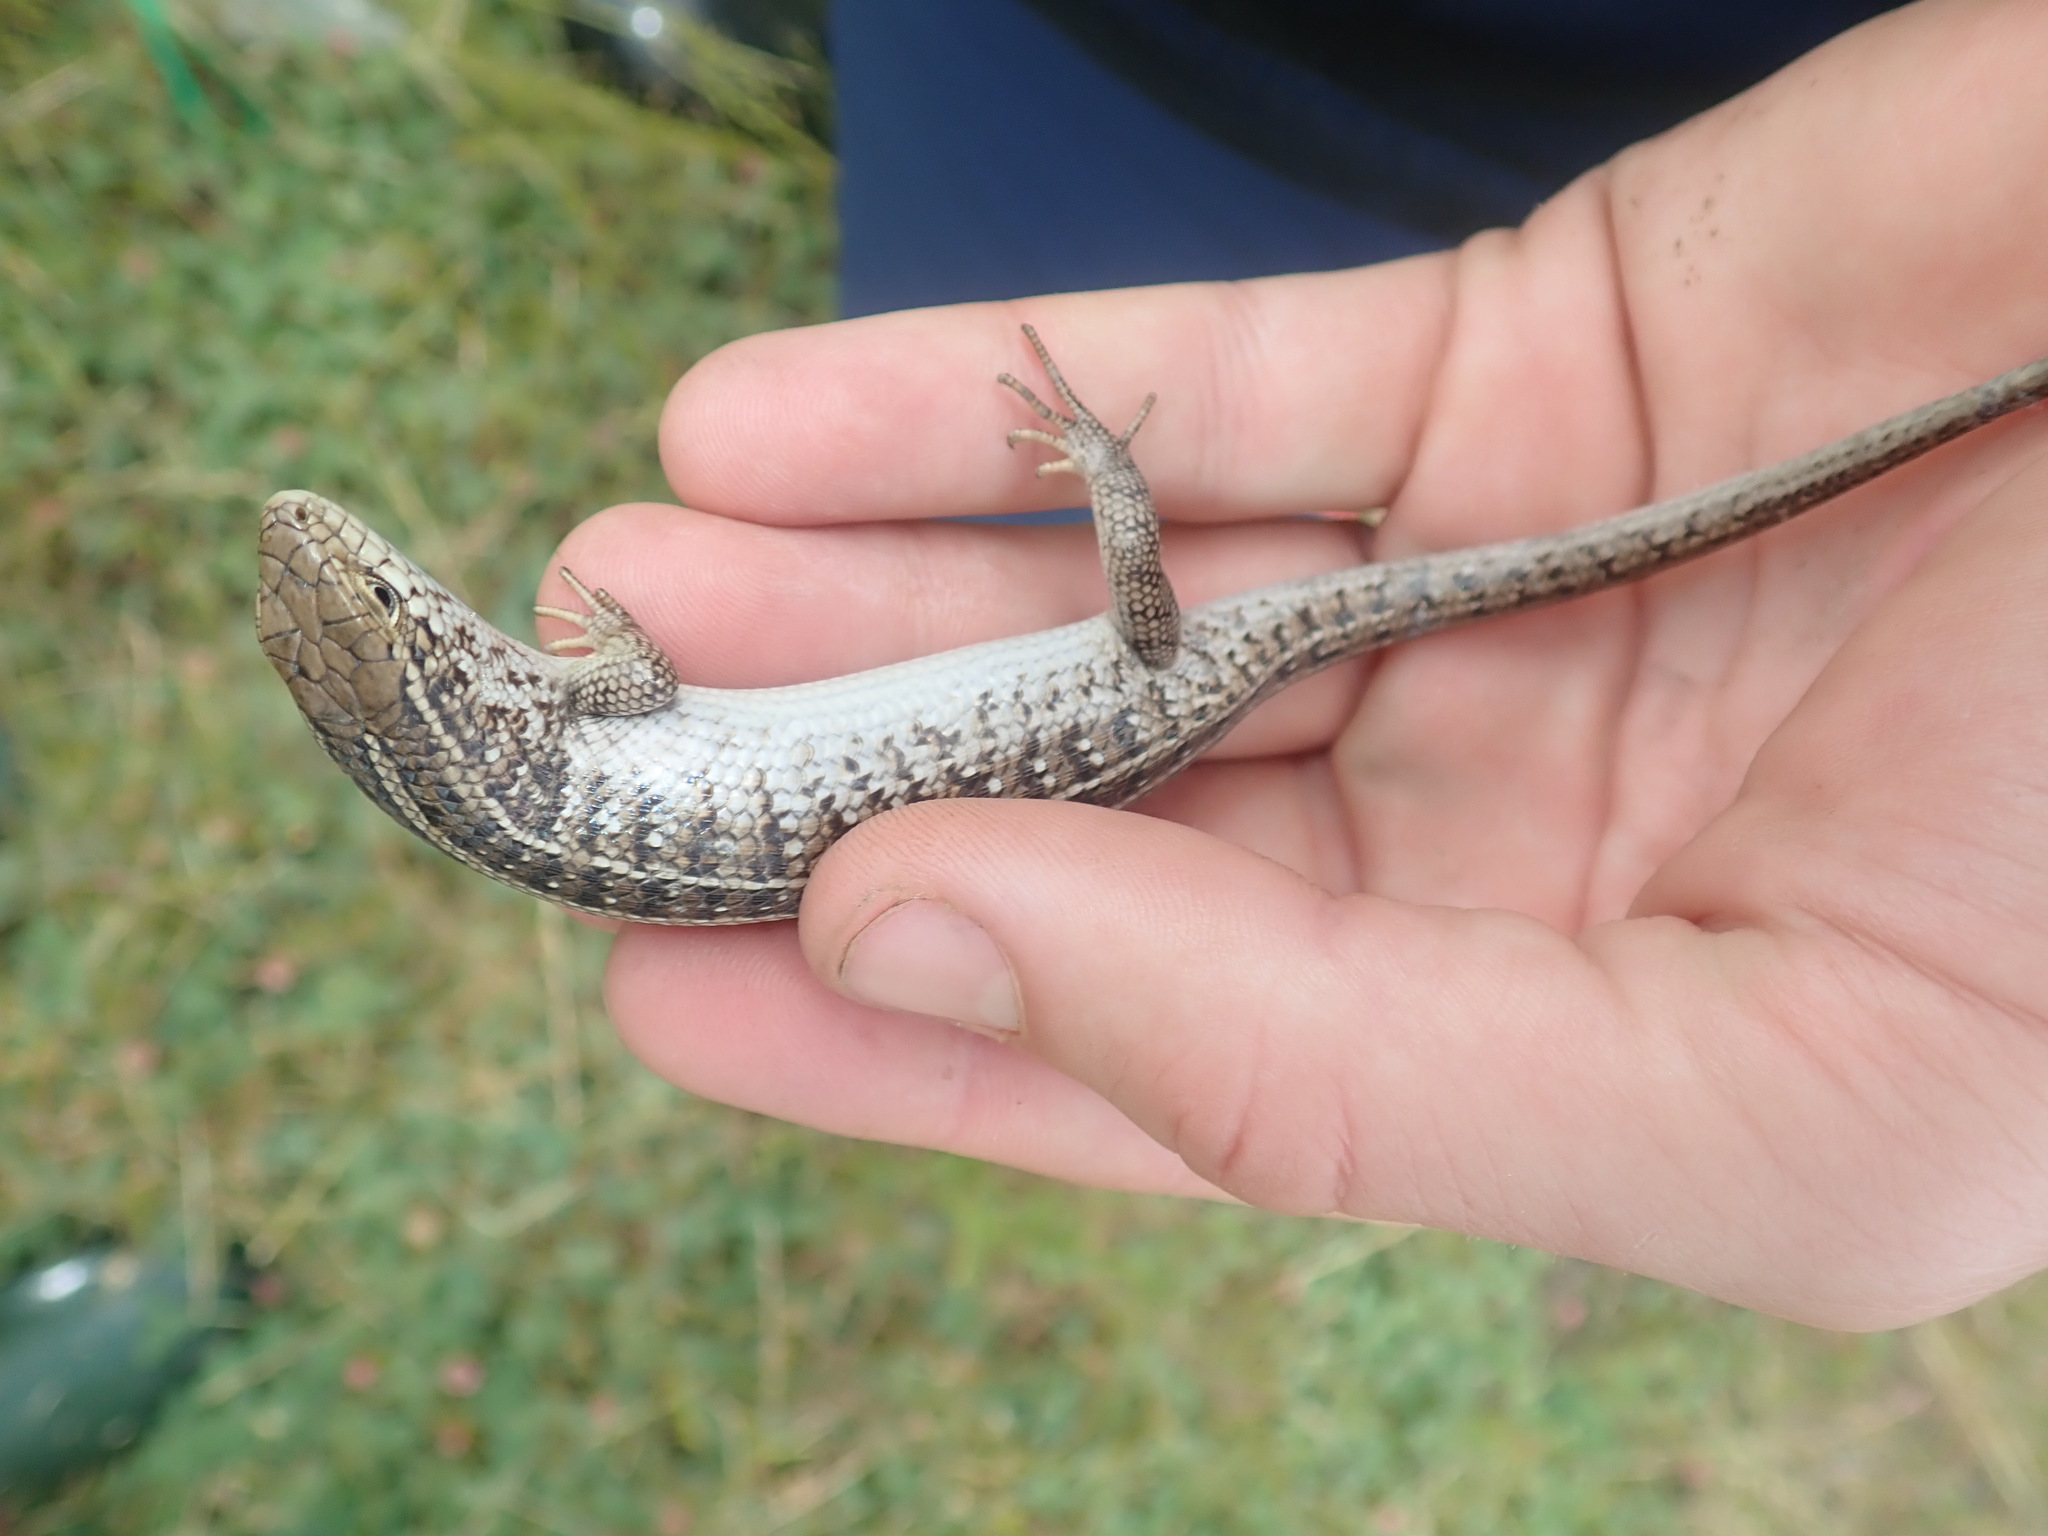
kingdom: Animalia
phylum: Chordata
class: Squamata
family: Scincidae
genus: Trachylepis
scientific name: Trachylepis capensis
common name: Cape skink
